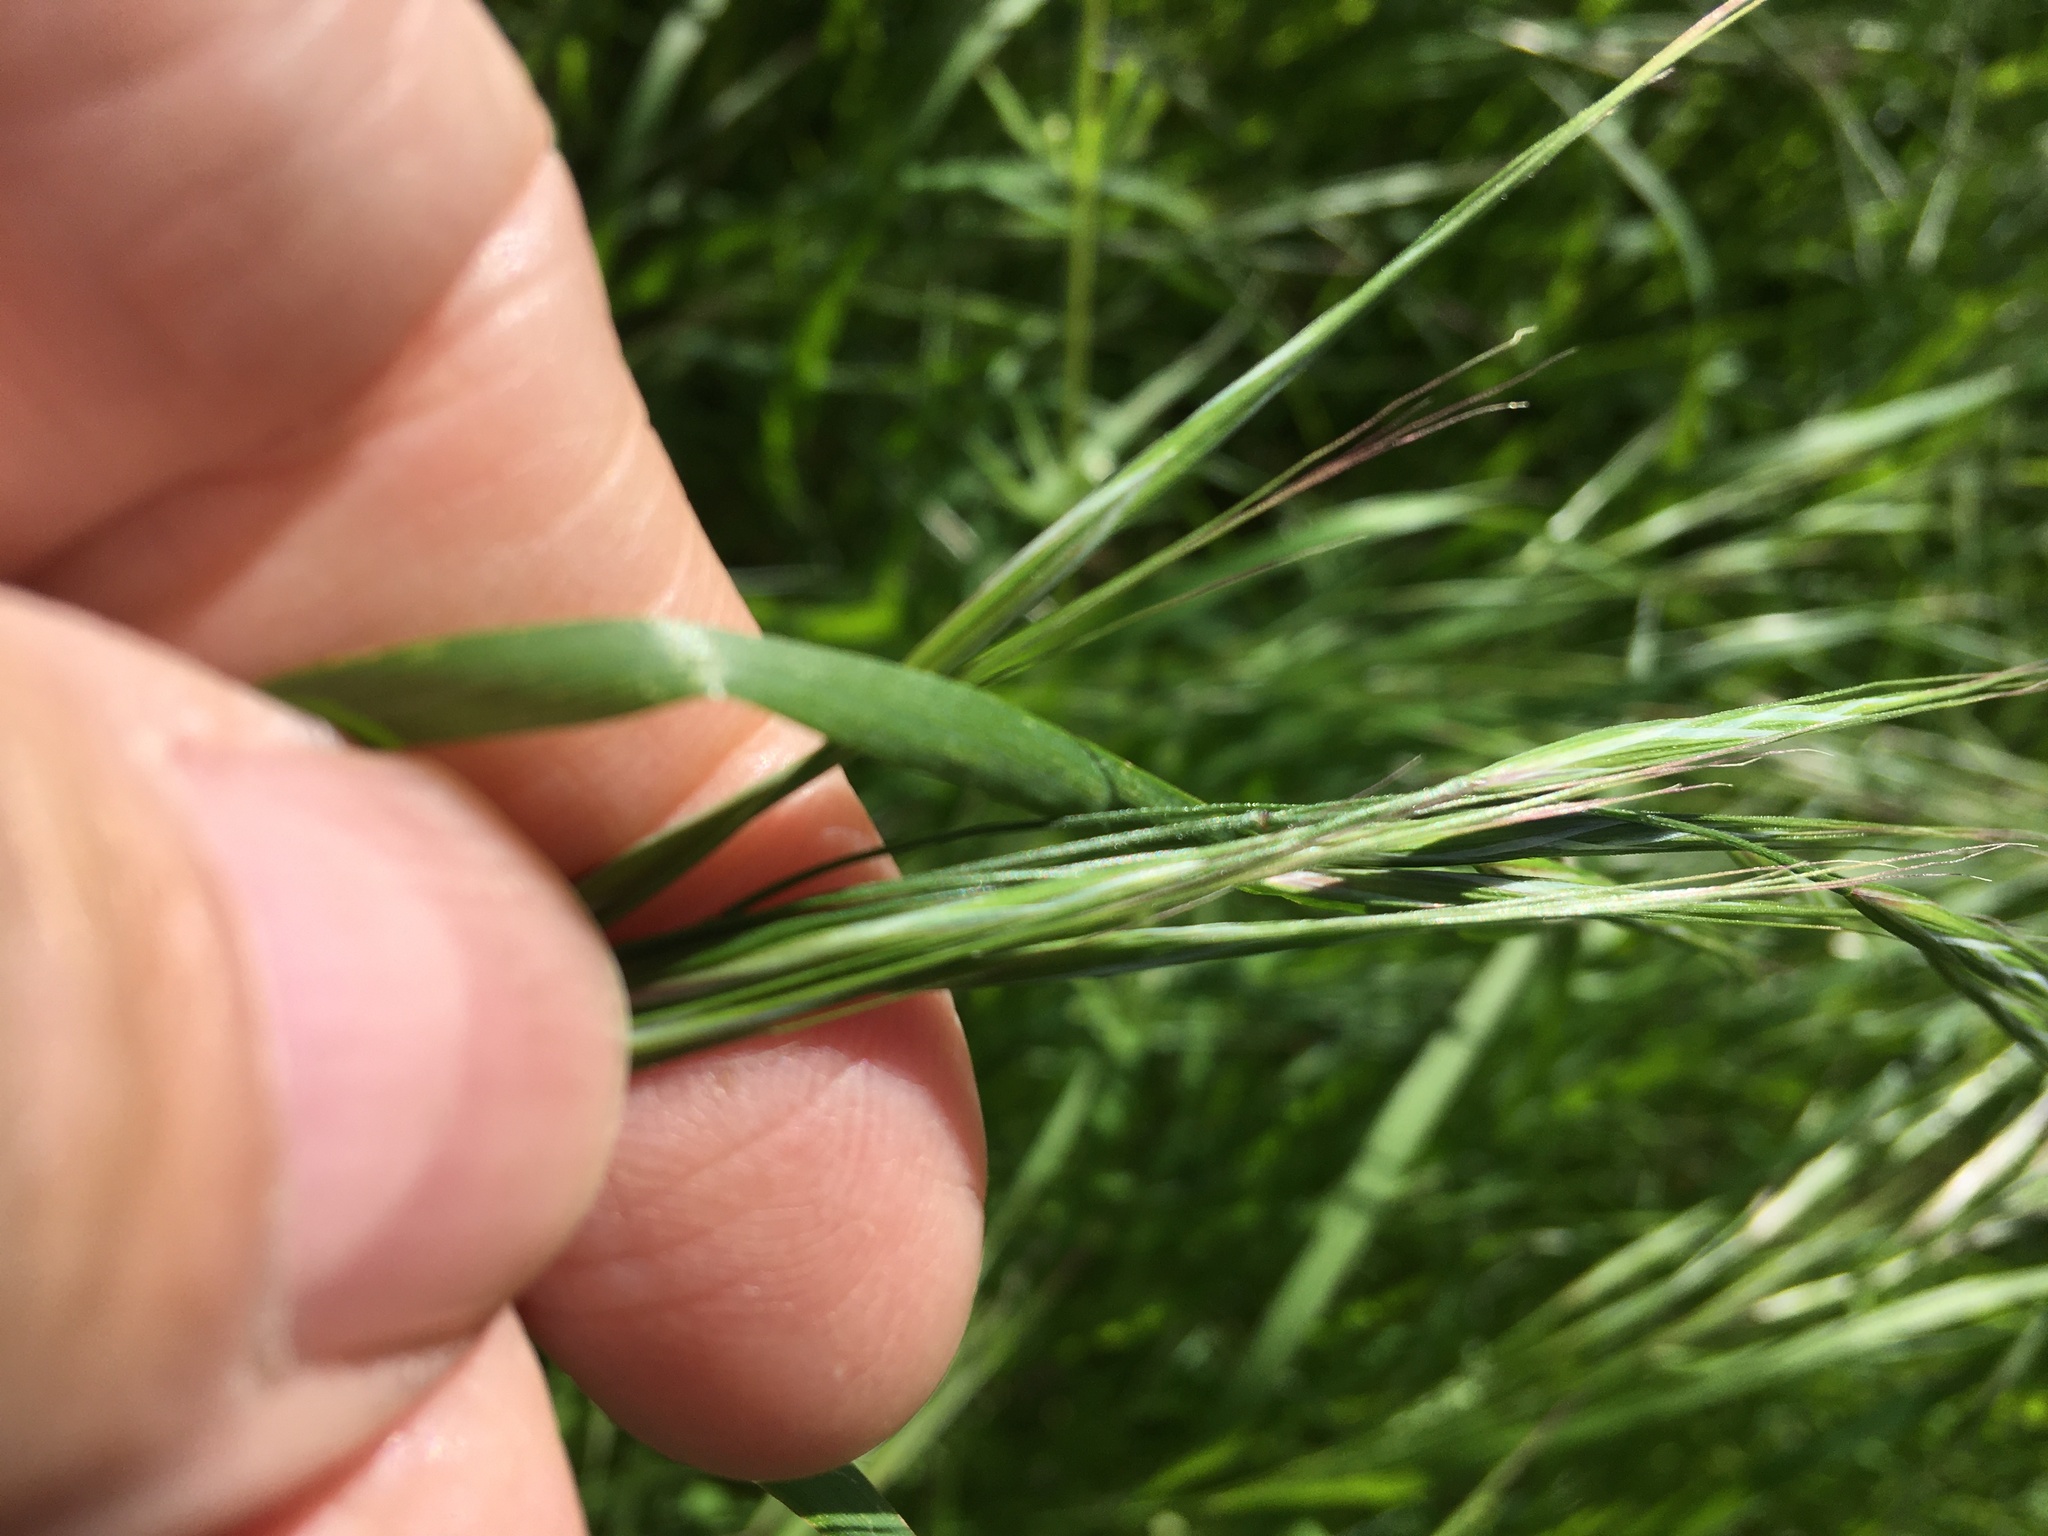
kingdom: Plantae
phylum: Tracheophyta
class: Liliopsida
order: Poales
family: Poaceae
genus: Bromus
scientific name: Bromus sterilis
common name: Poverty brome
